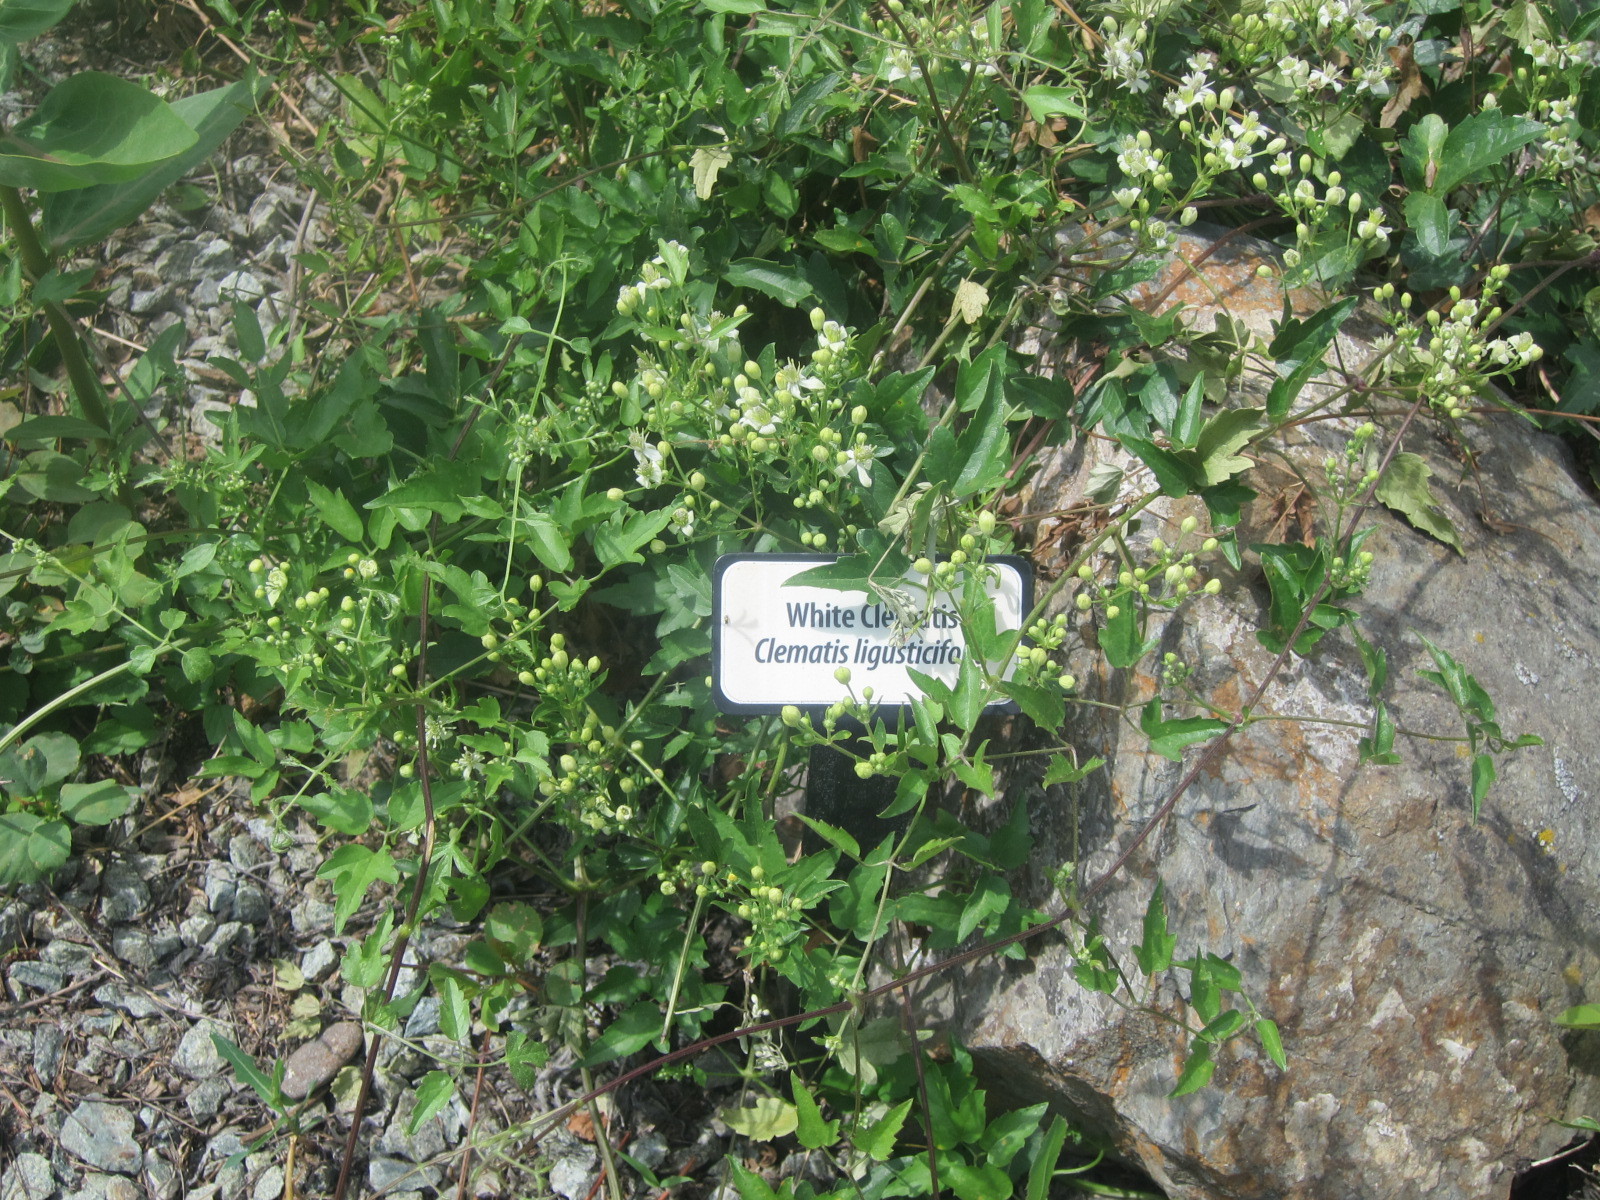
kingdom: Plantae
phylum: Tracheophyta
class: Magnoliopsida
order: Ranunculales
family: Ranunculaceae
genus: Clematis
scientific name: Clematis ligusticifolia
